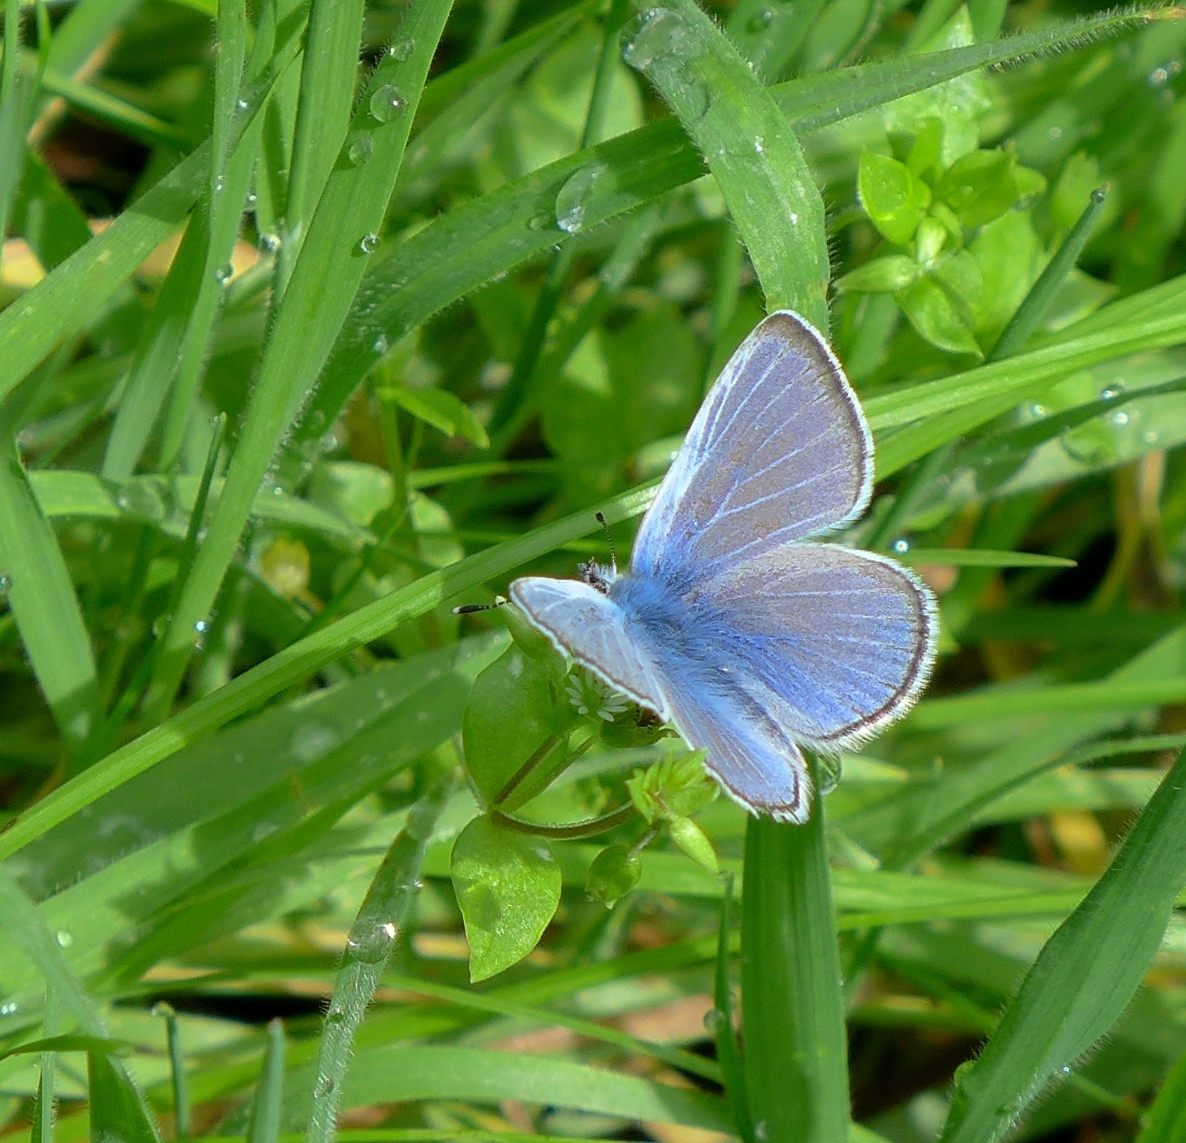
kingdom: Animalia
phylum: Arthropoda
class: Insecta
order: Lepidoptera
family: Lycaenidae
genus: Glaucopsyche
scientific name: Glaucopsyche lygdamus
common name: Silvery blue
